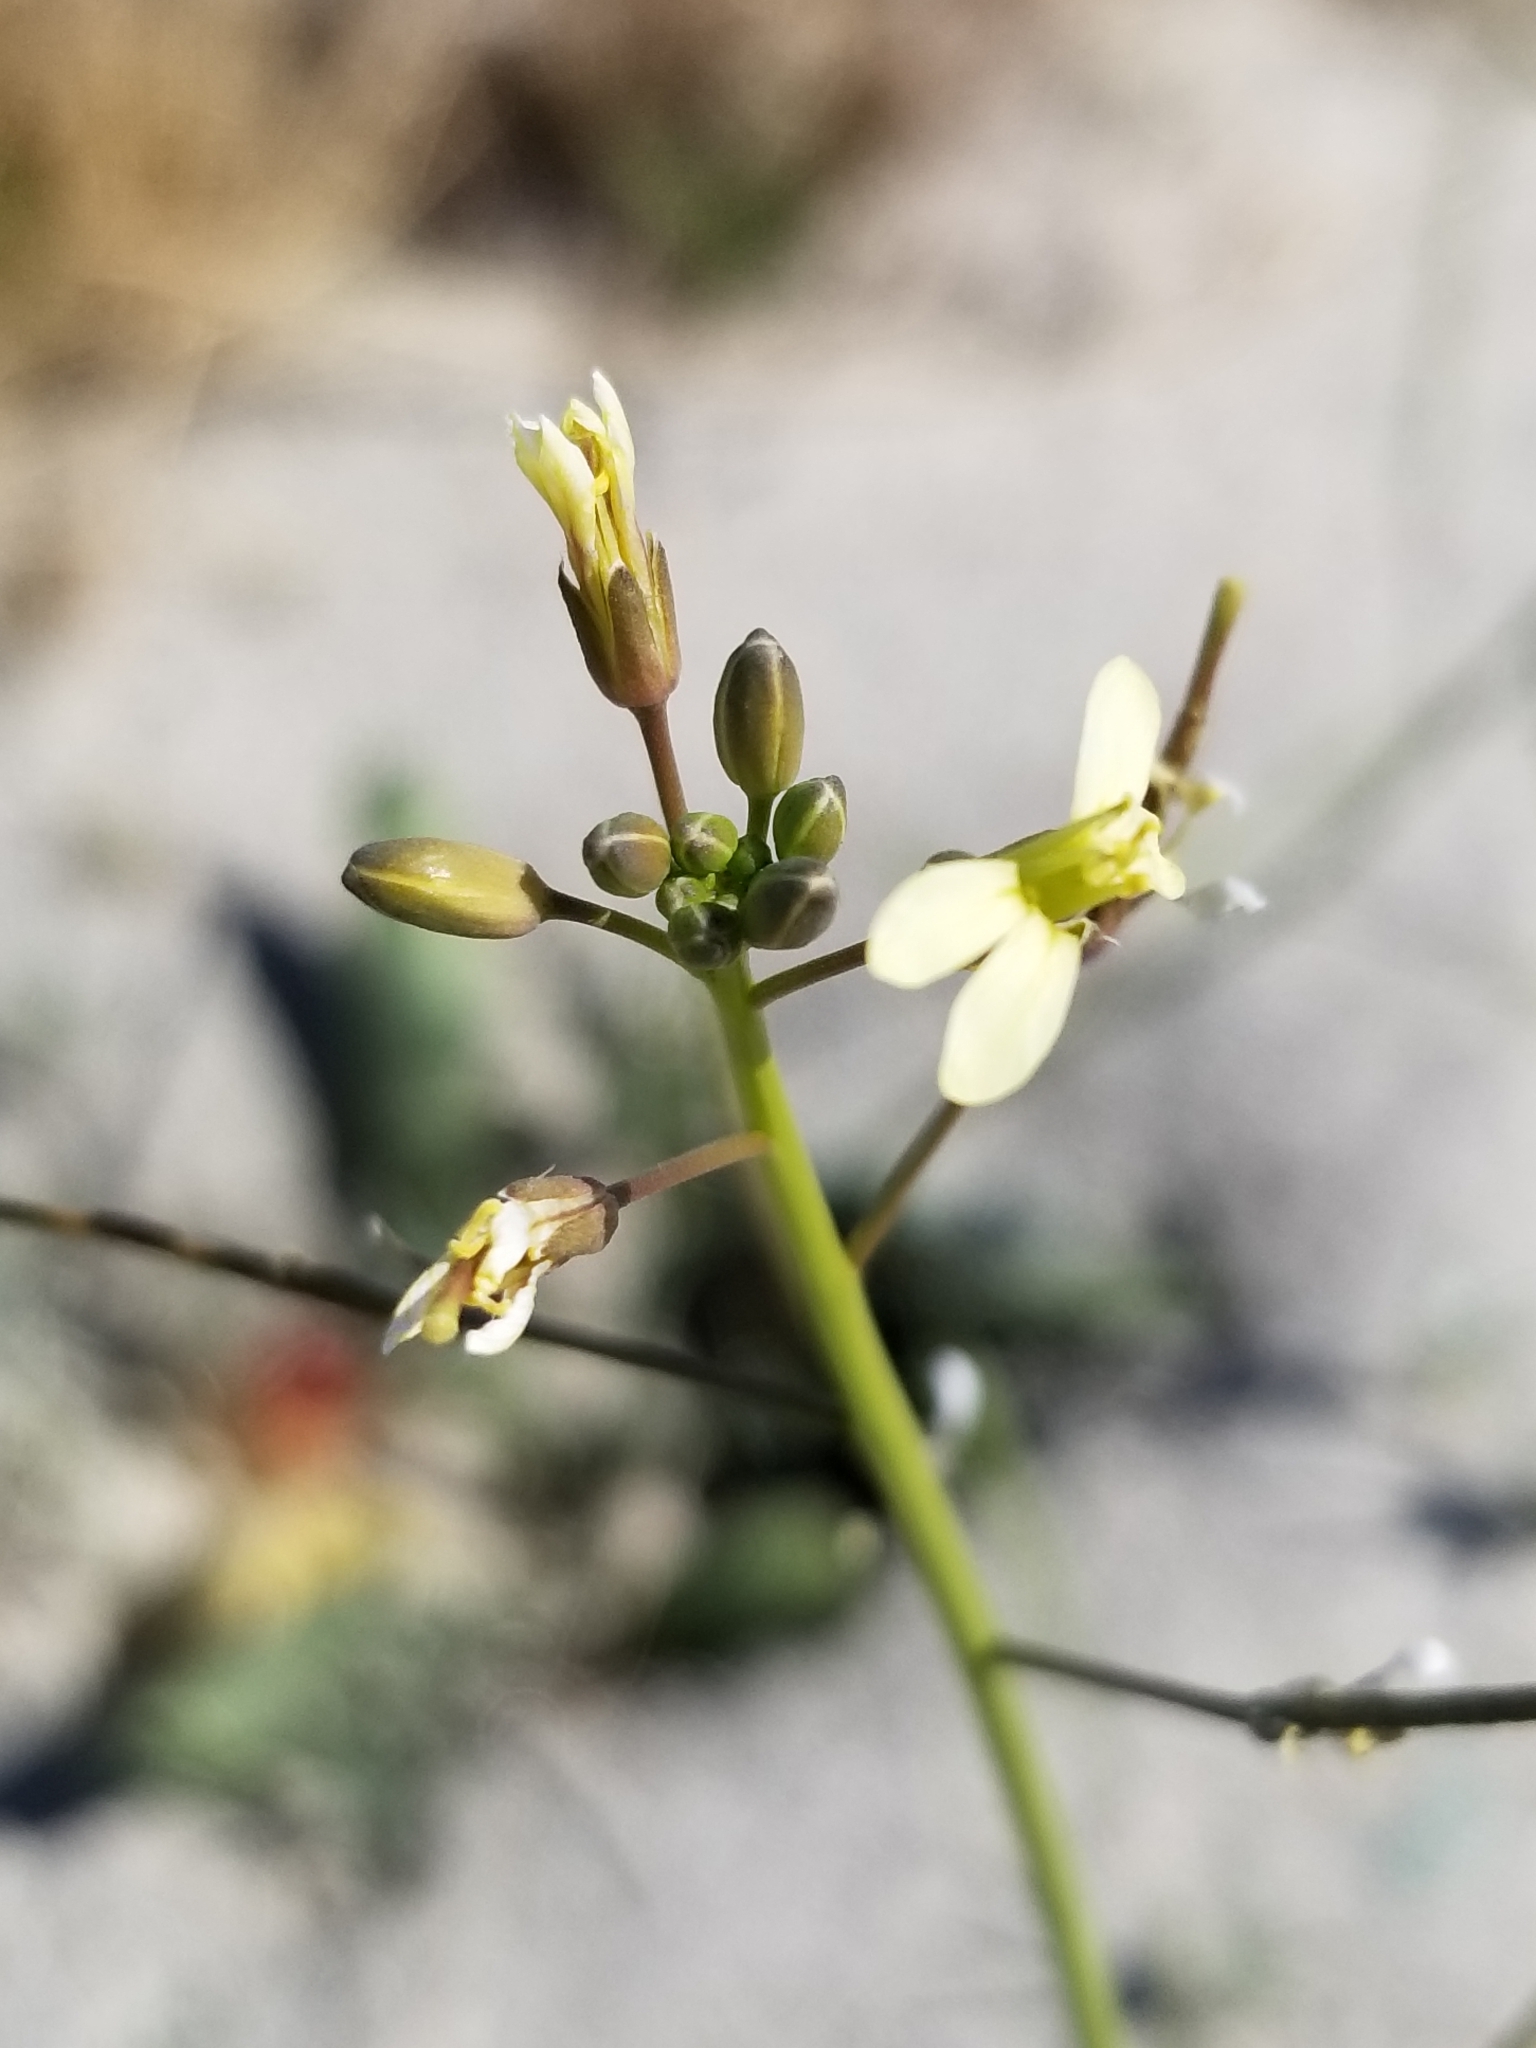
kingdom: Plantae
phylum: Tracheophyta
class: Magnoliopsida
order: Brassicales
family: Brassicaceae
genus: Brassica
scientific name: Brassica tournefortii
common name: Pale cabbage
